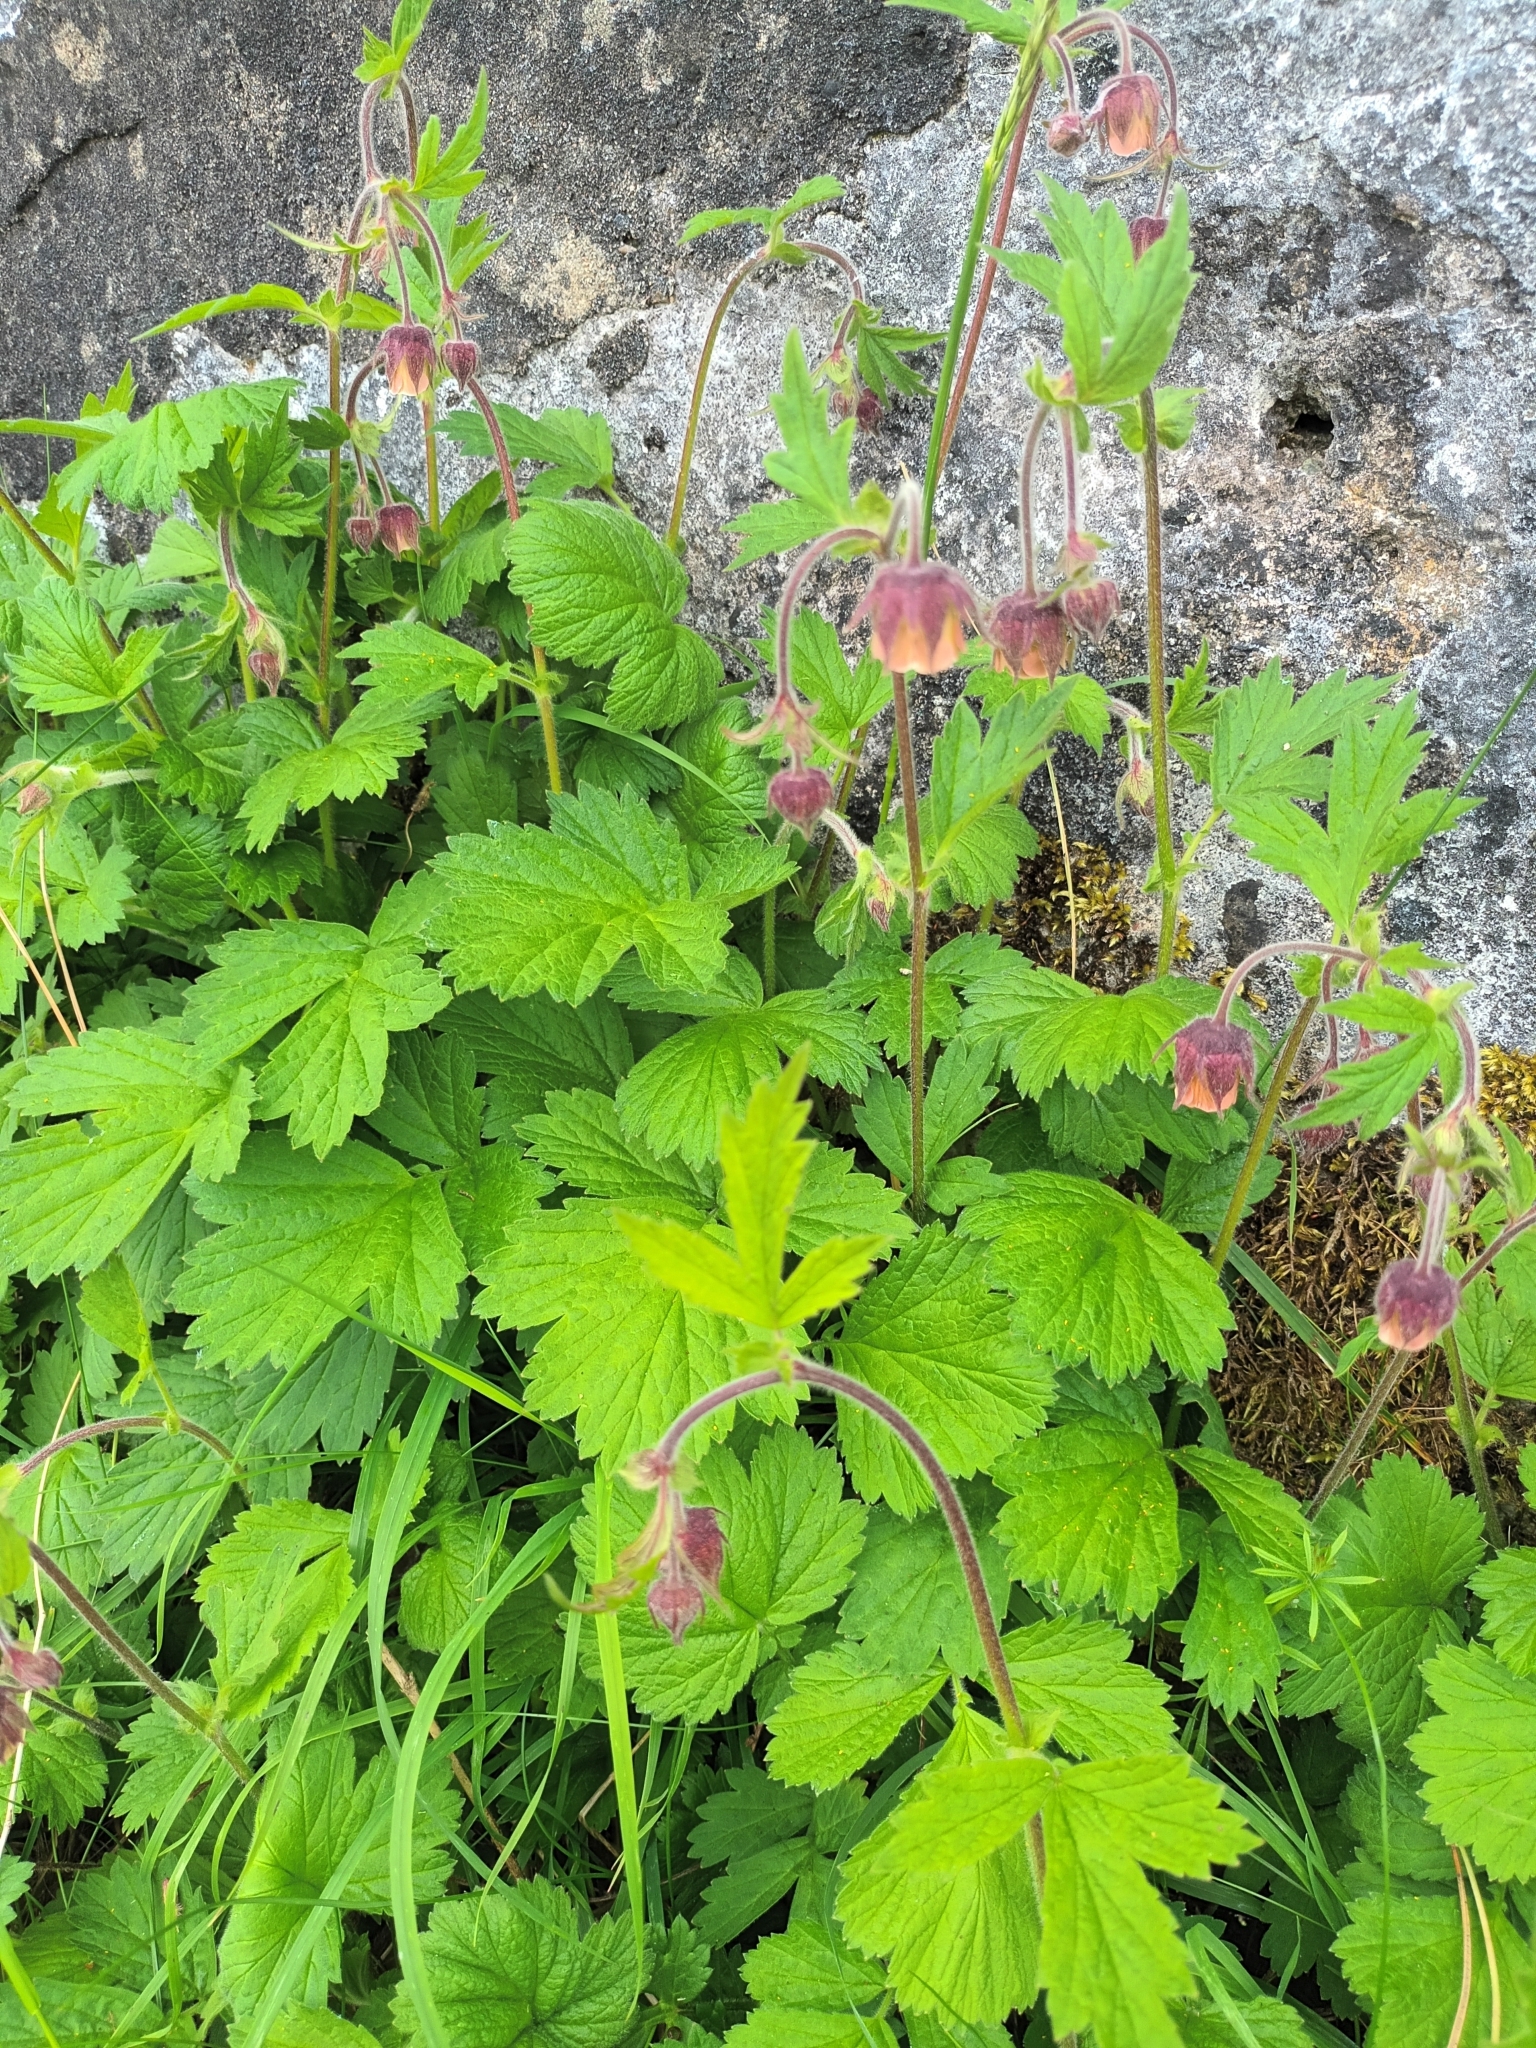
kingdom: Plantae
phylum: Tracheophyta
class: Magnoliopsida
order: Rosales
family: Rosaceae
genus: Geum
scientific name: Geum rivale
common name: Water avens
